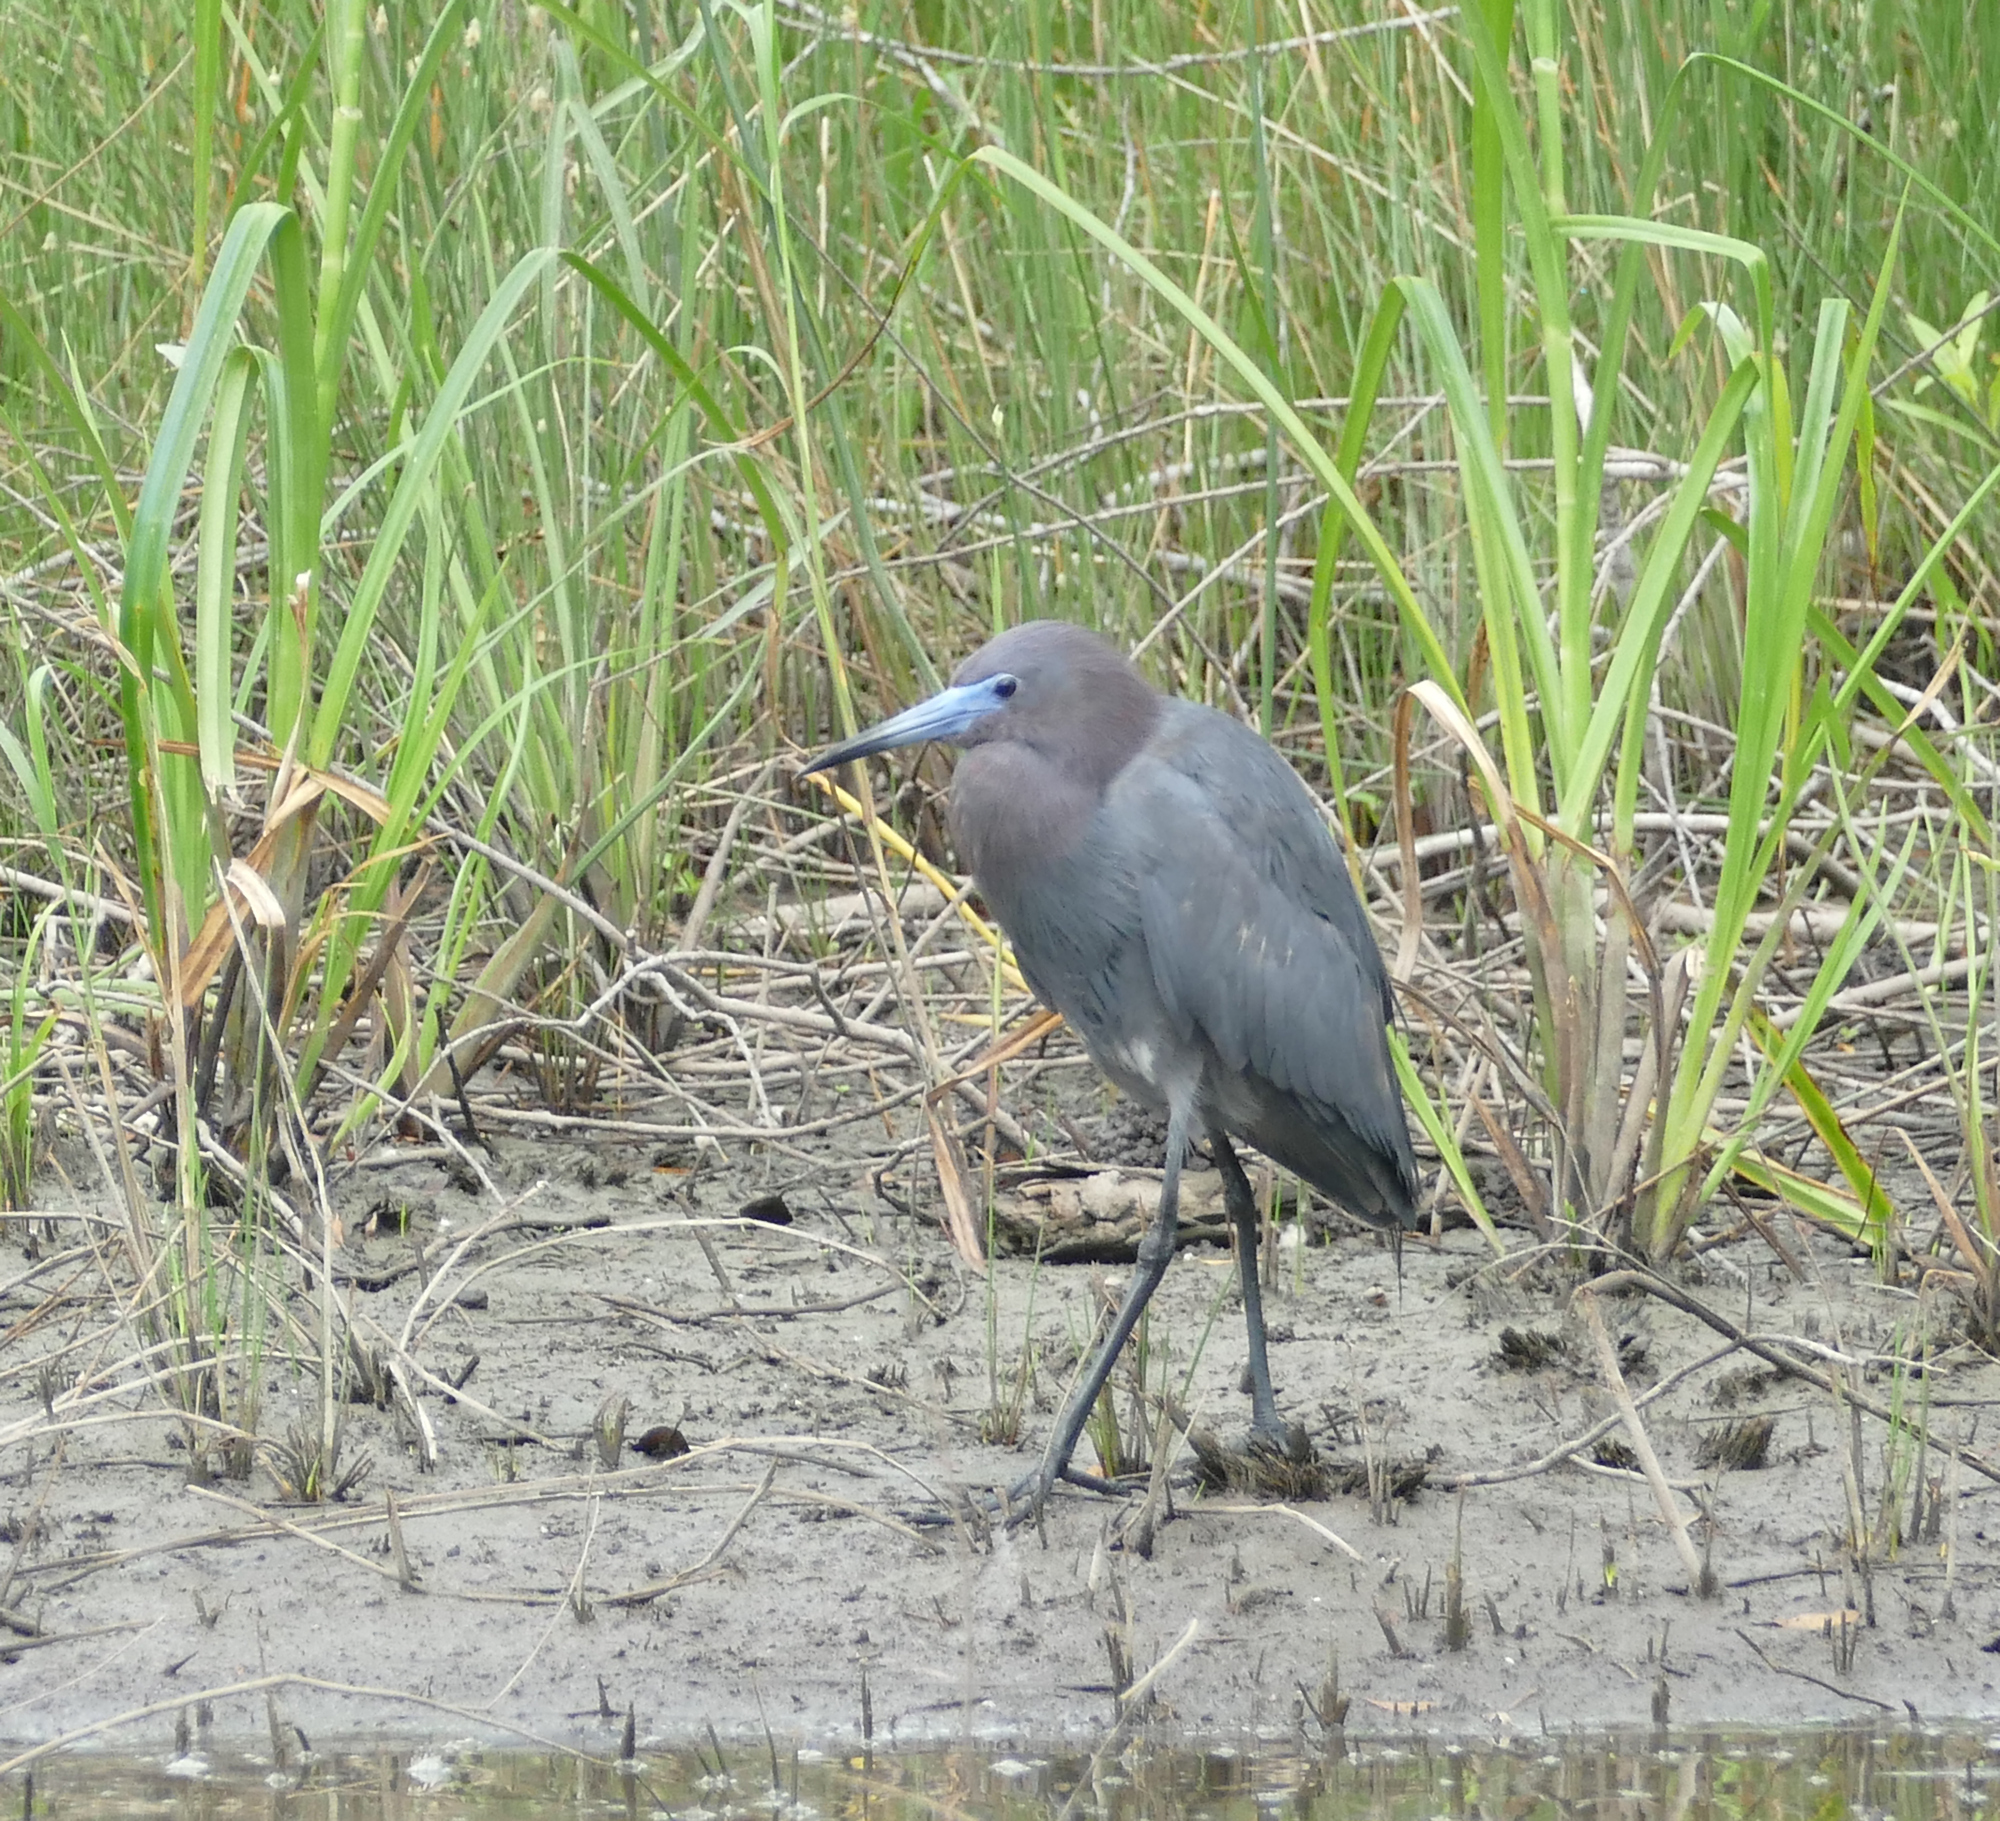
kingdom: Animalia
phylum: Chordata
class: Aves
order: Pelecaniformes
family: Ardeidae
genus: Egretta
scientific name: Egretta caerulea
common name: Little blue heron
